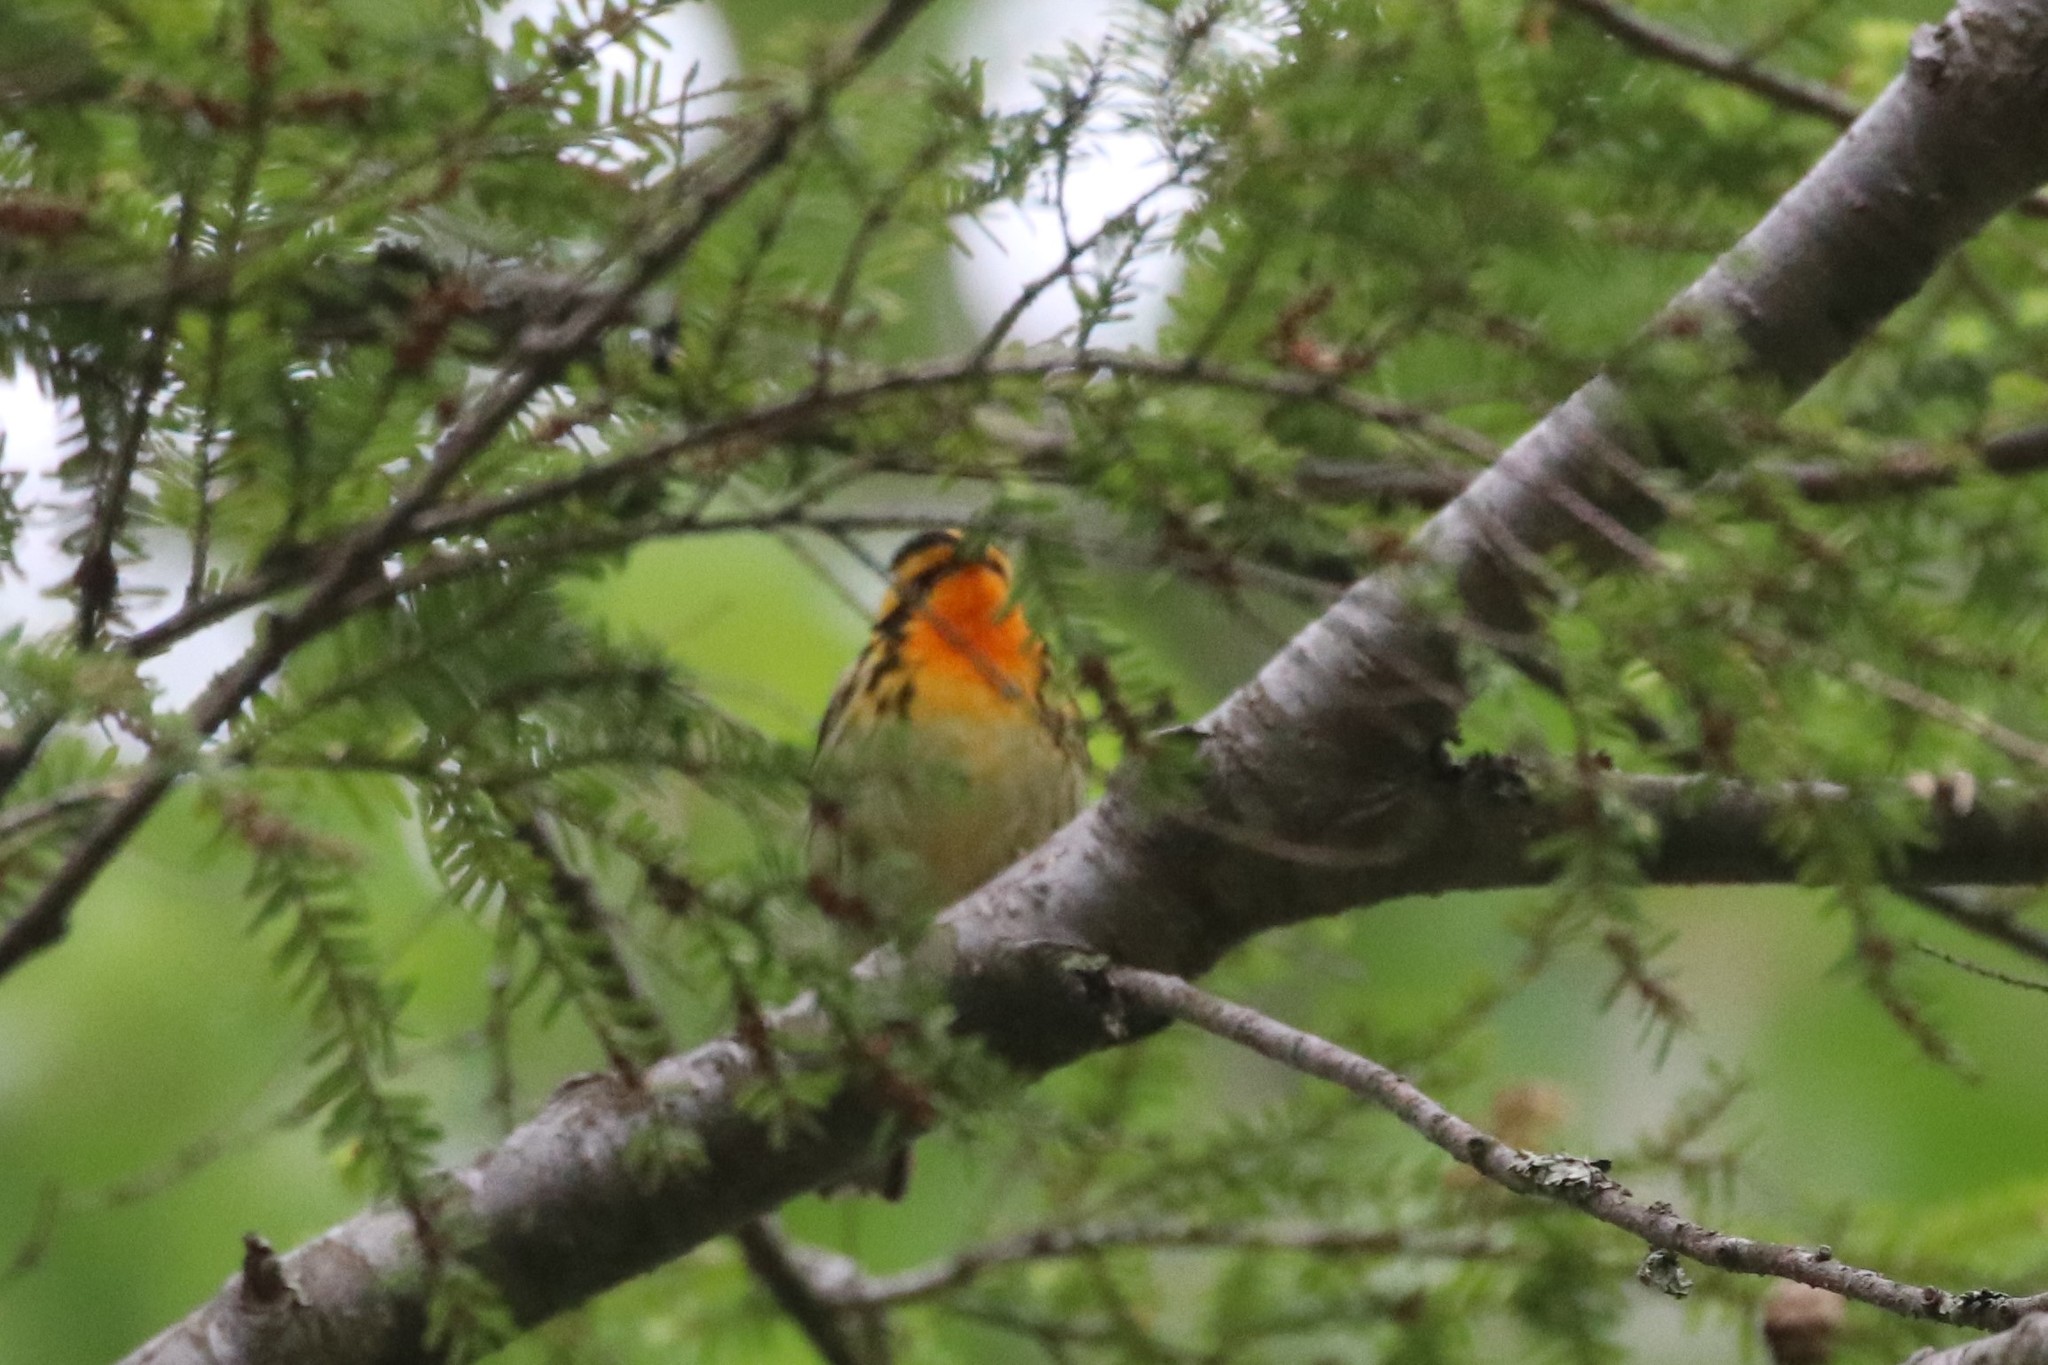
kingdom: Animalia
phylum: Chordata
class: Aves
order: Passeriformes
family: Parulidae
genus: Setophaga
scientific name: Setophaga fusca
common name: Blackburnian warbler
